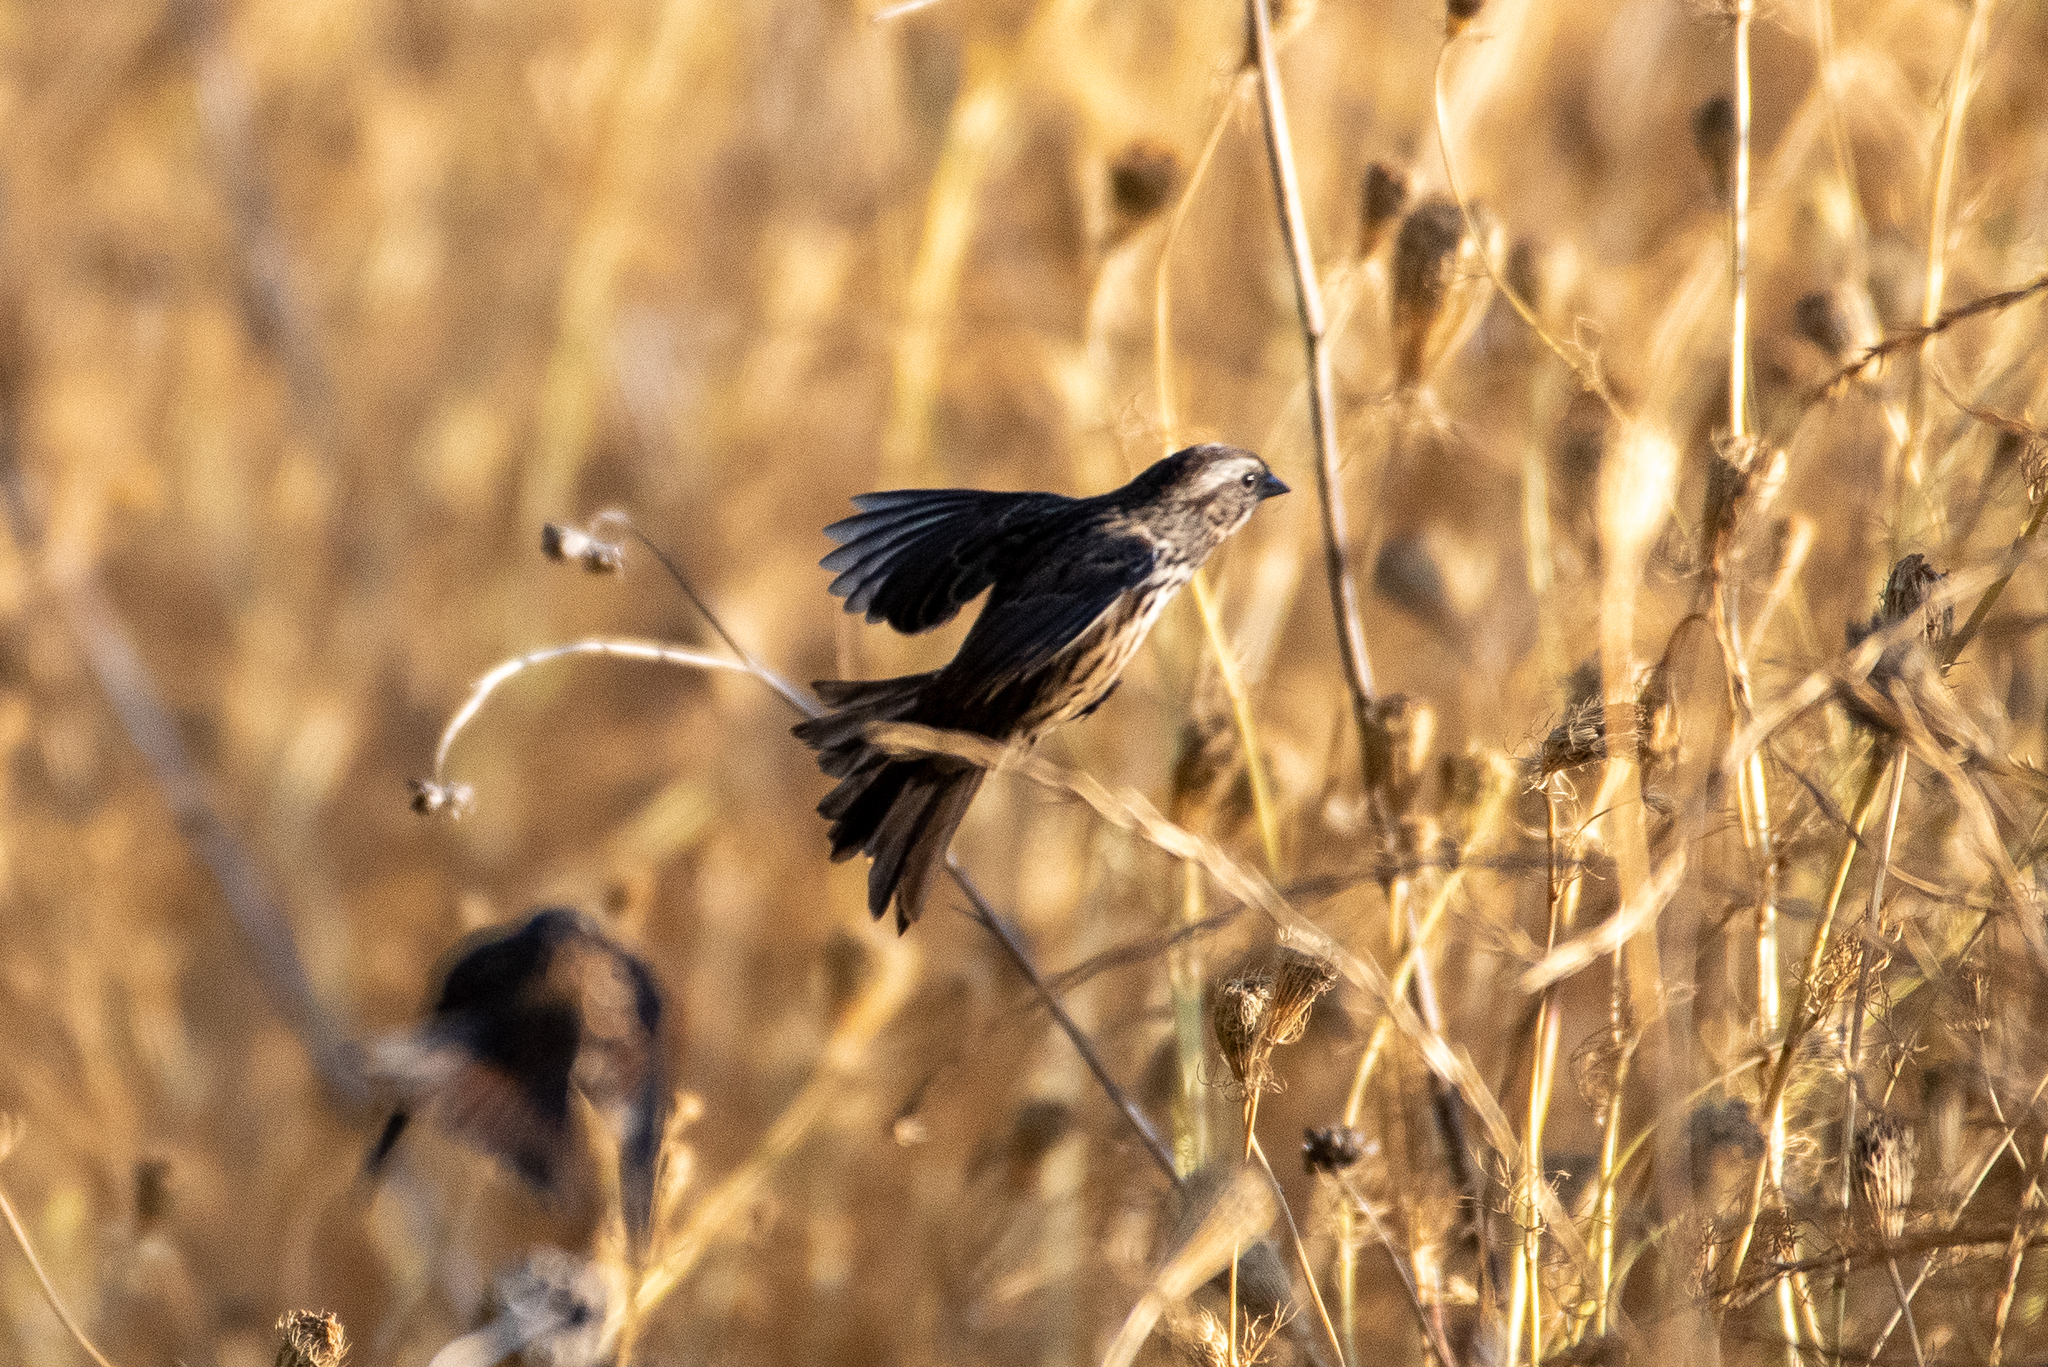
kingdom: Animalia
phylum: Chordata
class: Aves
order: Passeriformes
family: Passerellidae
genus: Melospiza
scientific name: Melospiza melodia
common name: Song sparrow
